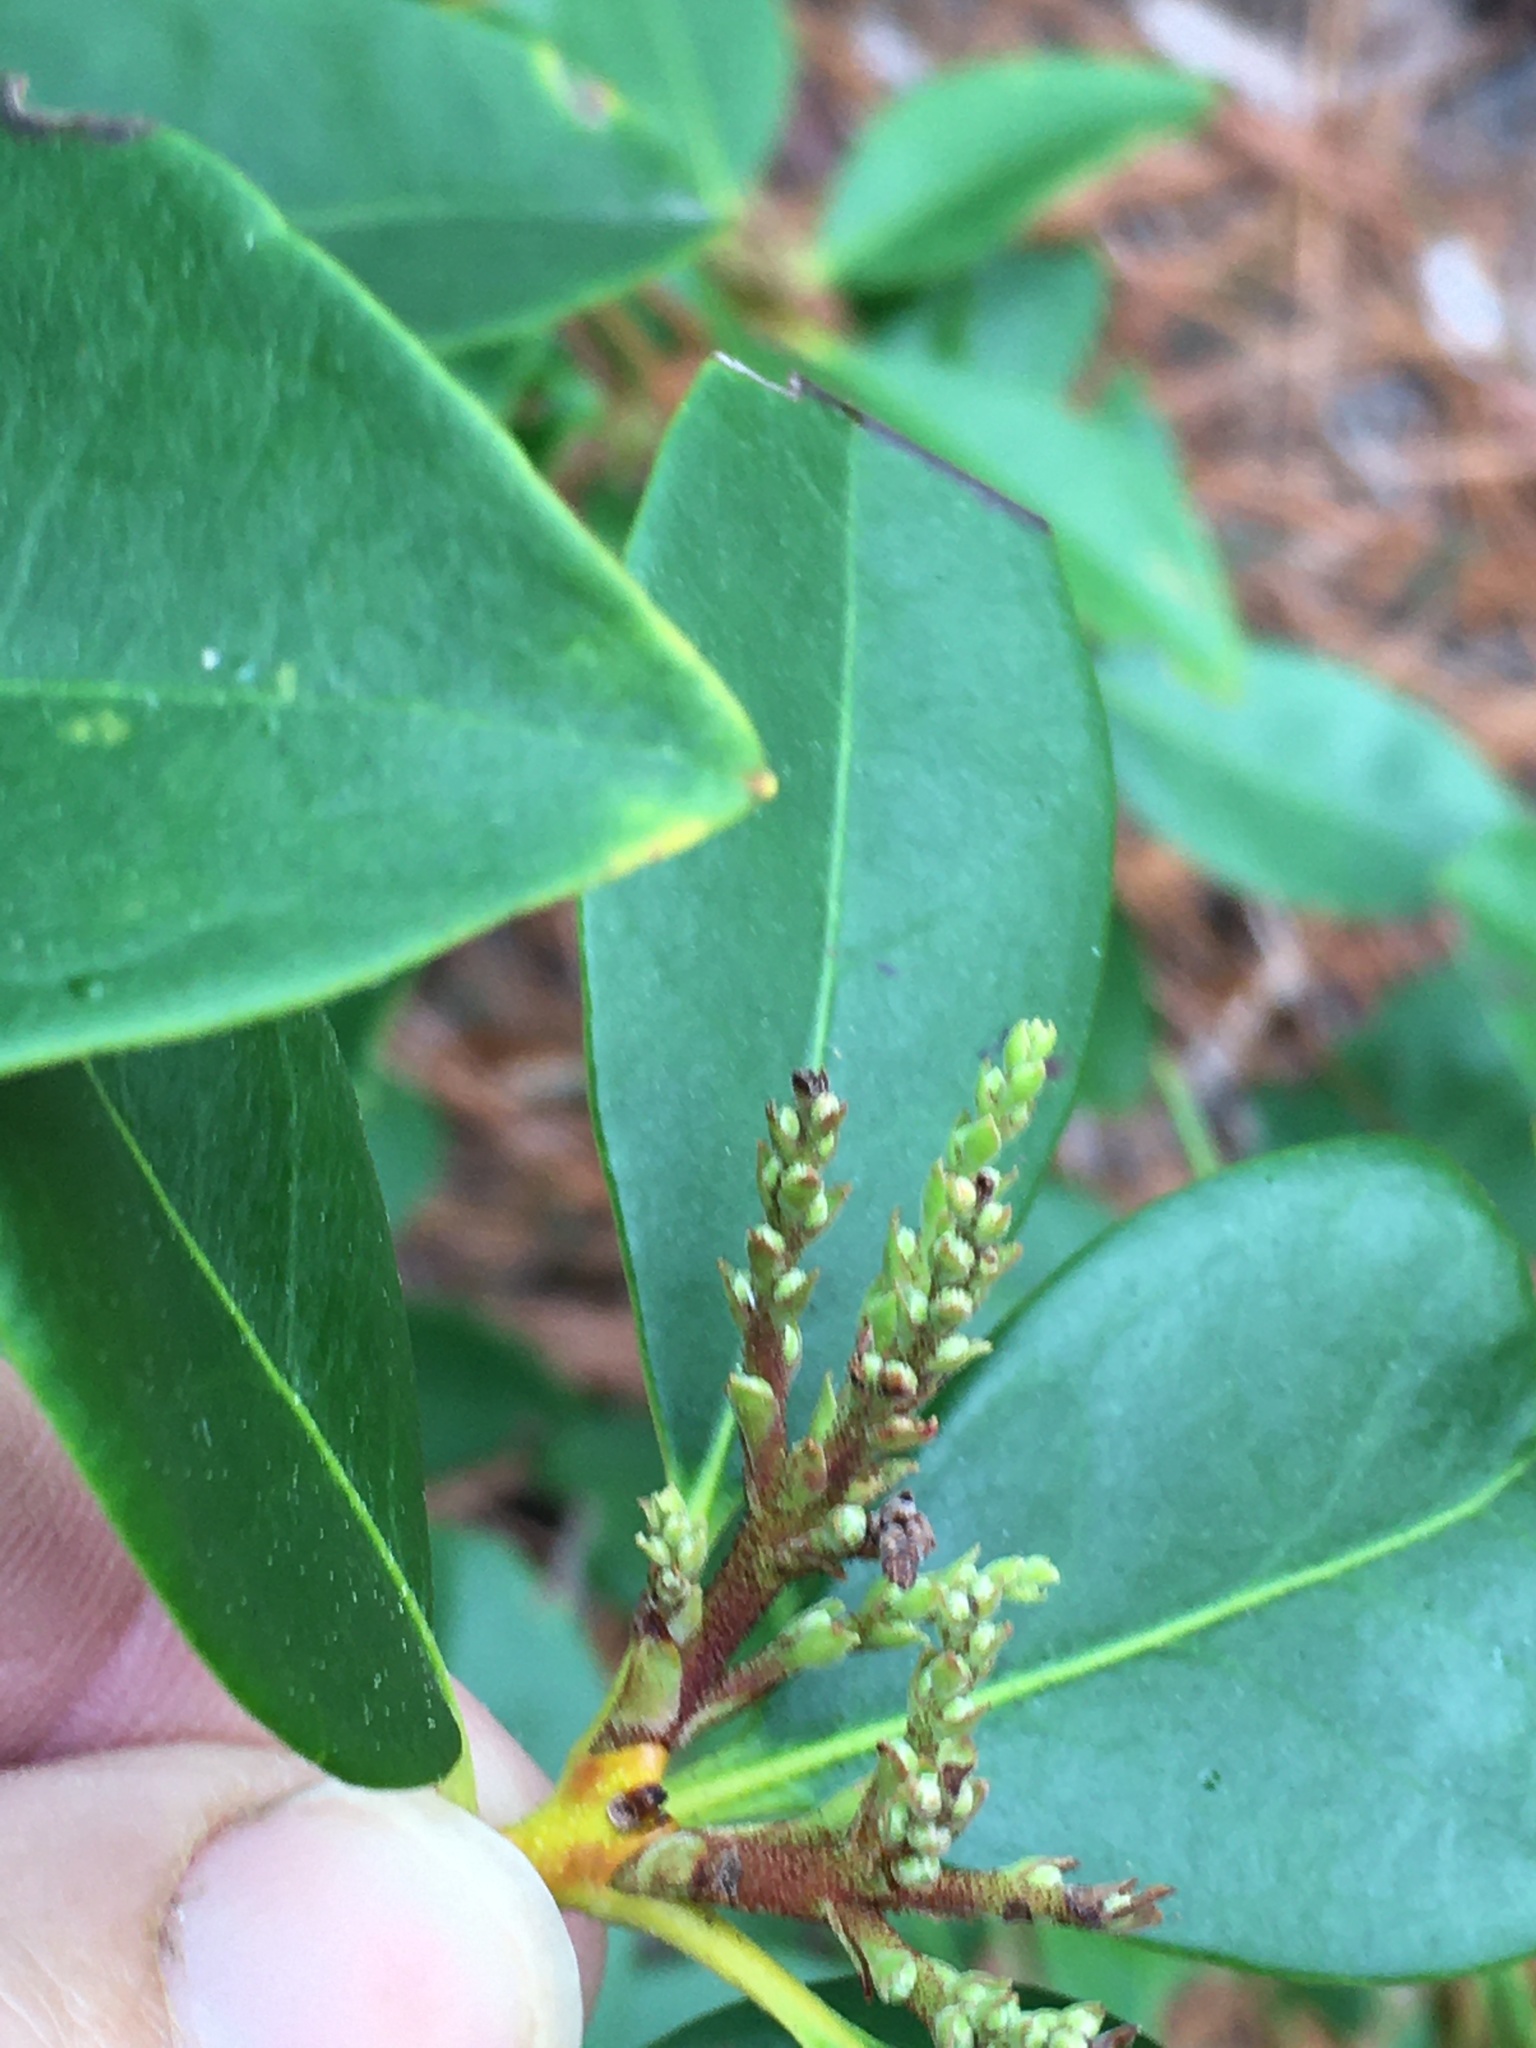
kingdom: Plantae
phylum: Tracheophyta
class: Magnoliopsida
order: Ericales
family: Ericaceae
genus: Kalmia
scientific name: Kalmia latifolia
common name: Mountain-laurel
